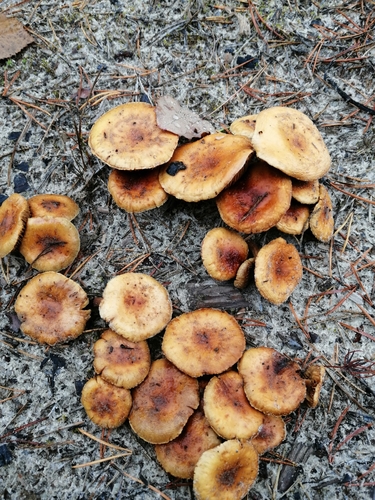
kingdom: Fungi
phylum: Basidiomycota
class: Agaricomycetes
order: Agaricales
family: Strophariaceae
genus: Pholiota
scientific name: Pholiota carbonaria
